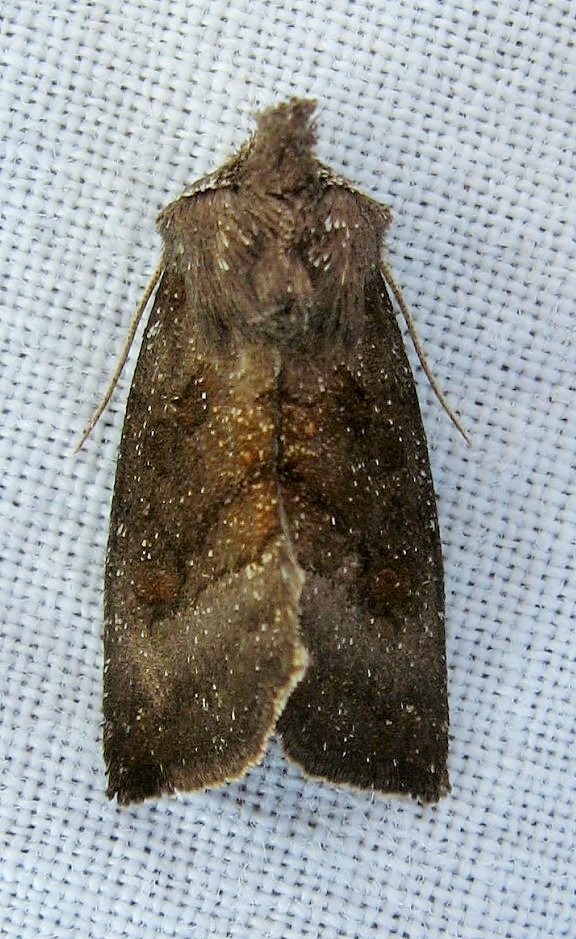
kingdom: Animalia
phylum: Arthropoda
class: Insecta
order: Lepidoptera
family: Noctuidae
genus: Papaipema
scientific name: Papaipema nelita
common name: Coneflower borer moth
